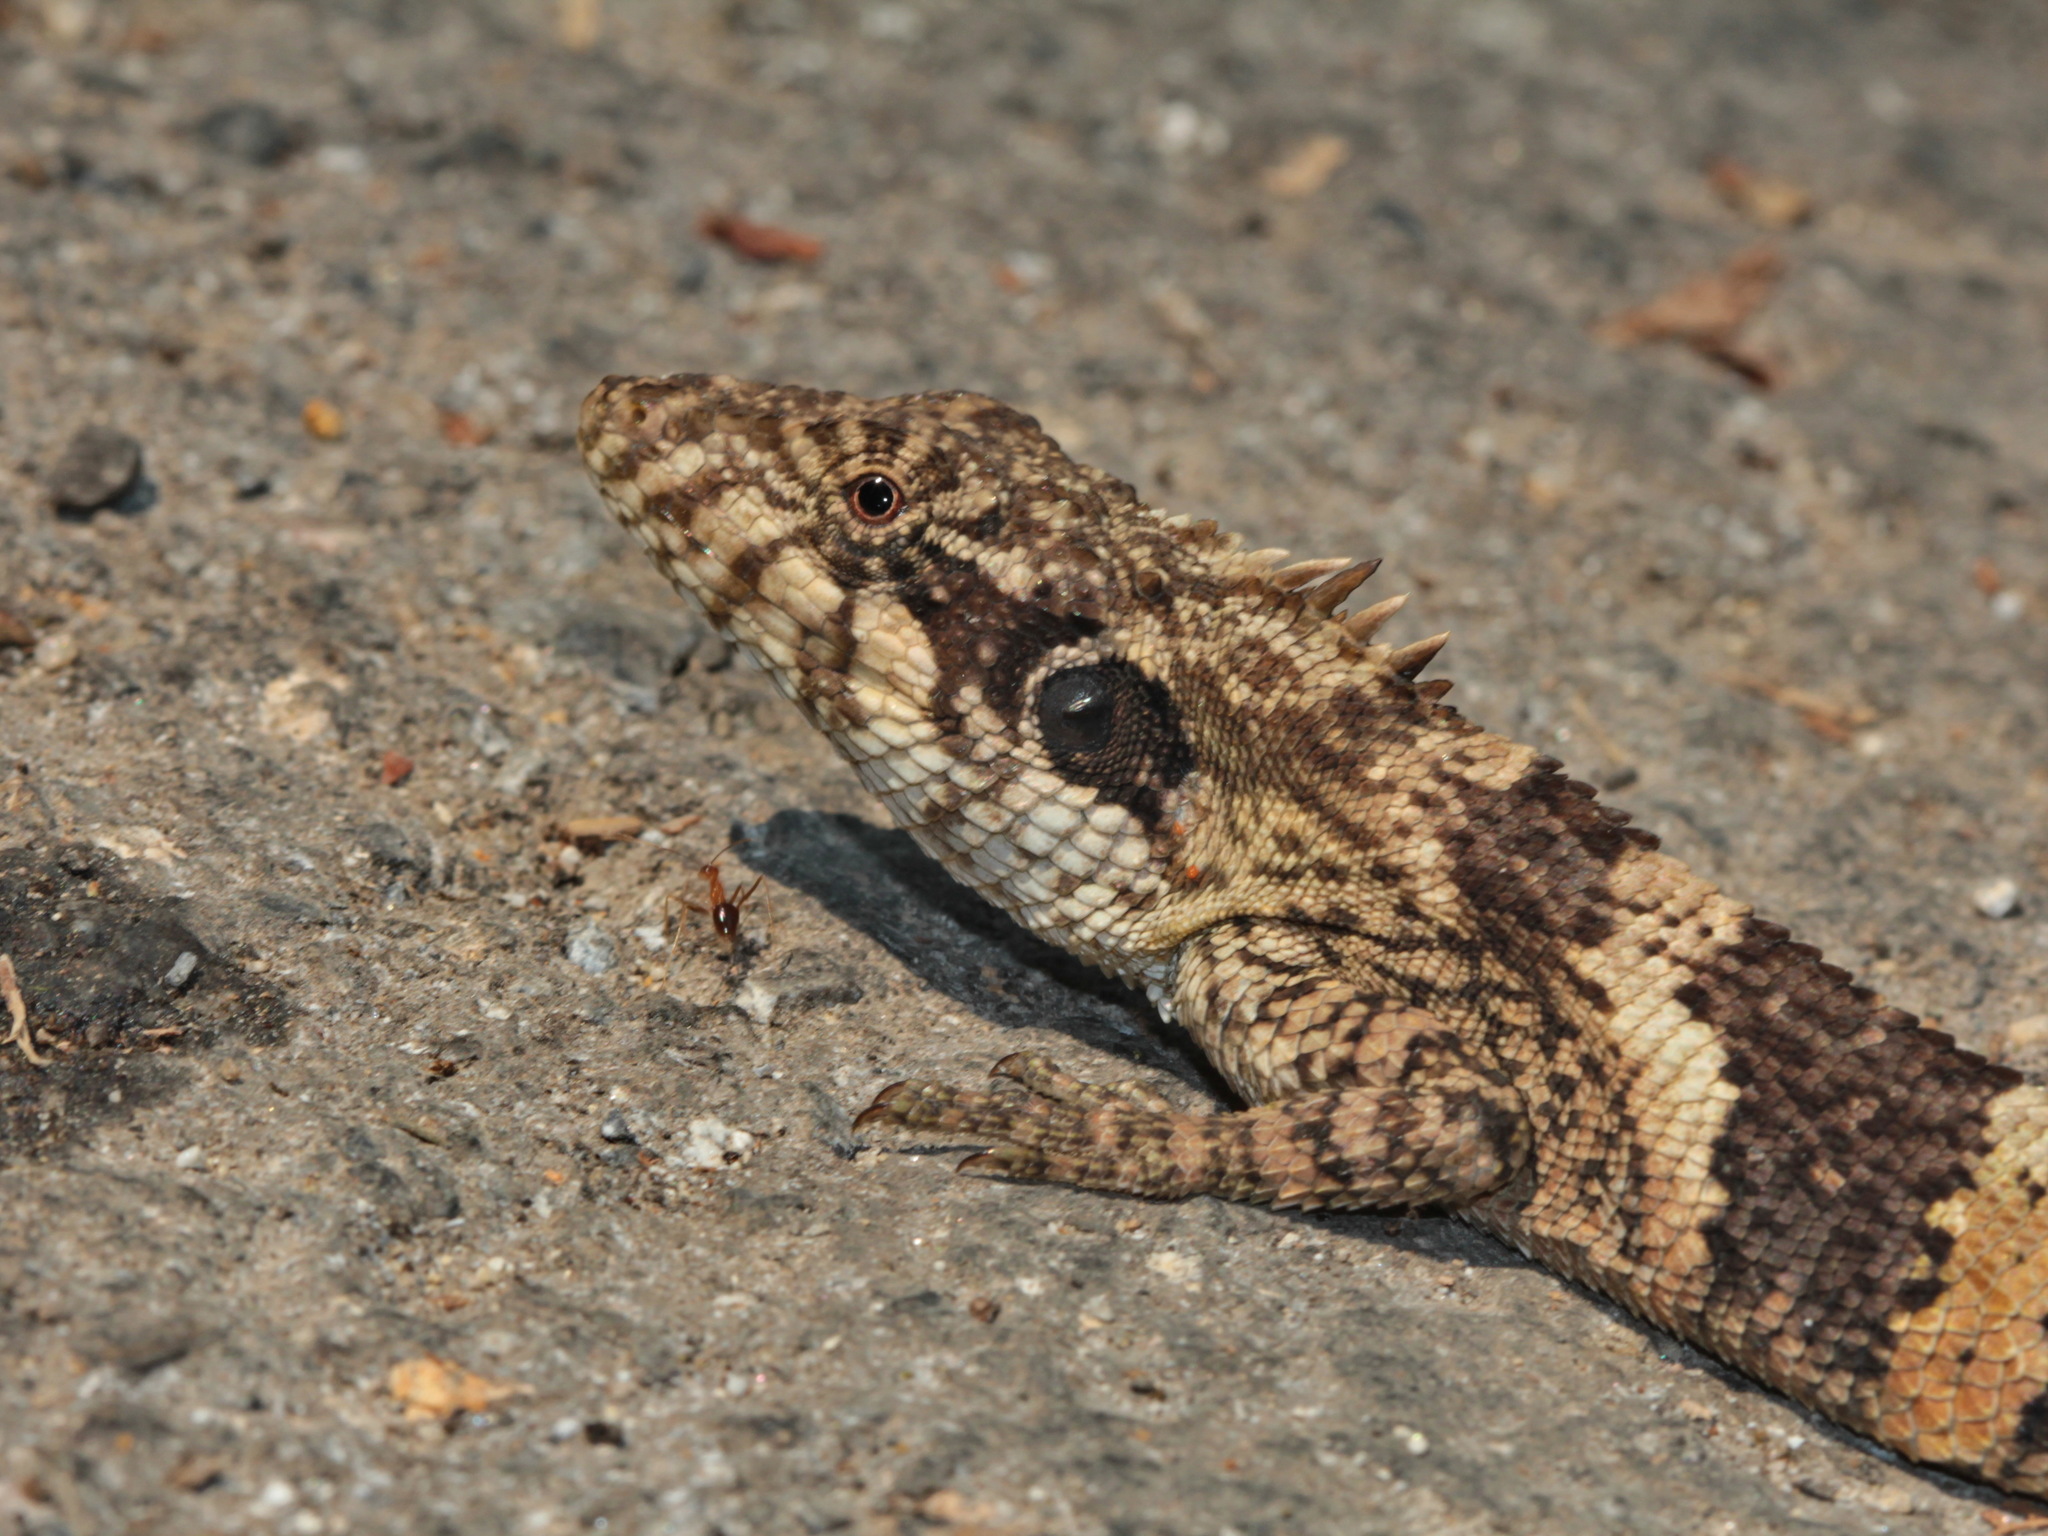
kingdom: Animalia
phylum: Chordata
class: Squamata
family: Agamidae
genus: Pseudocalotes
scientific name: Pseudocalotes kakhienensis
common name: Burmese mountain agamid
